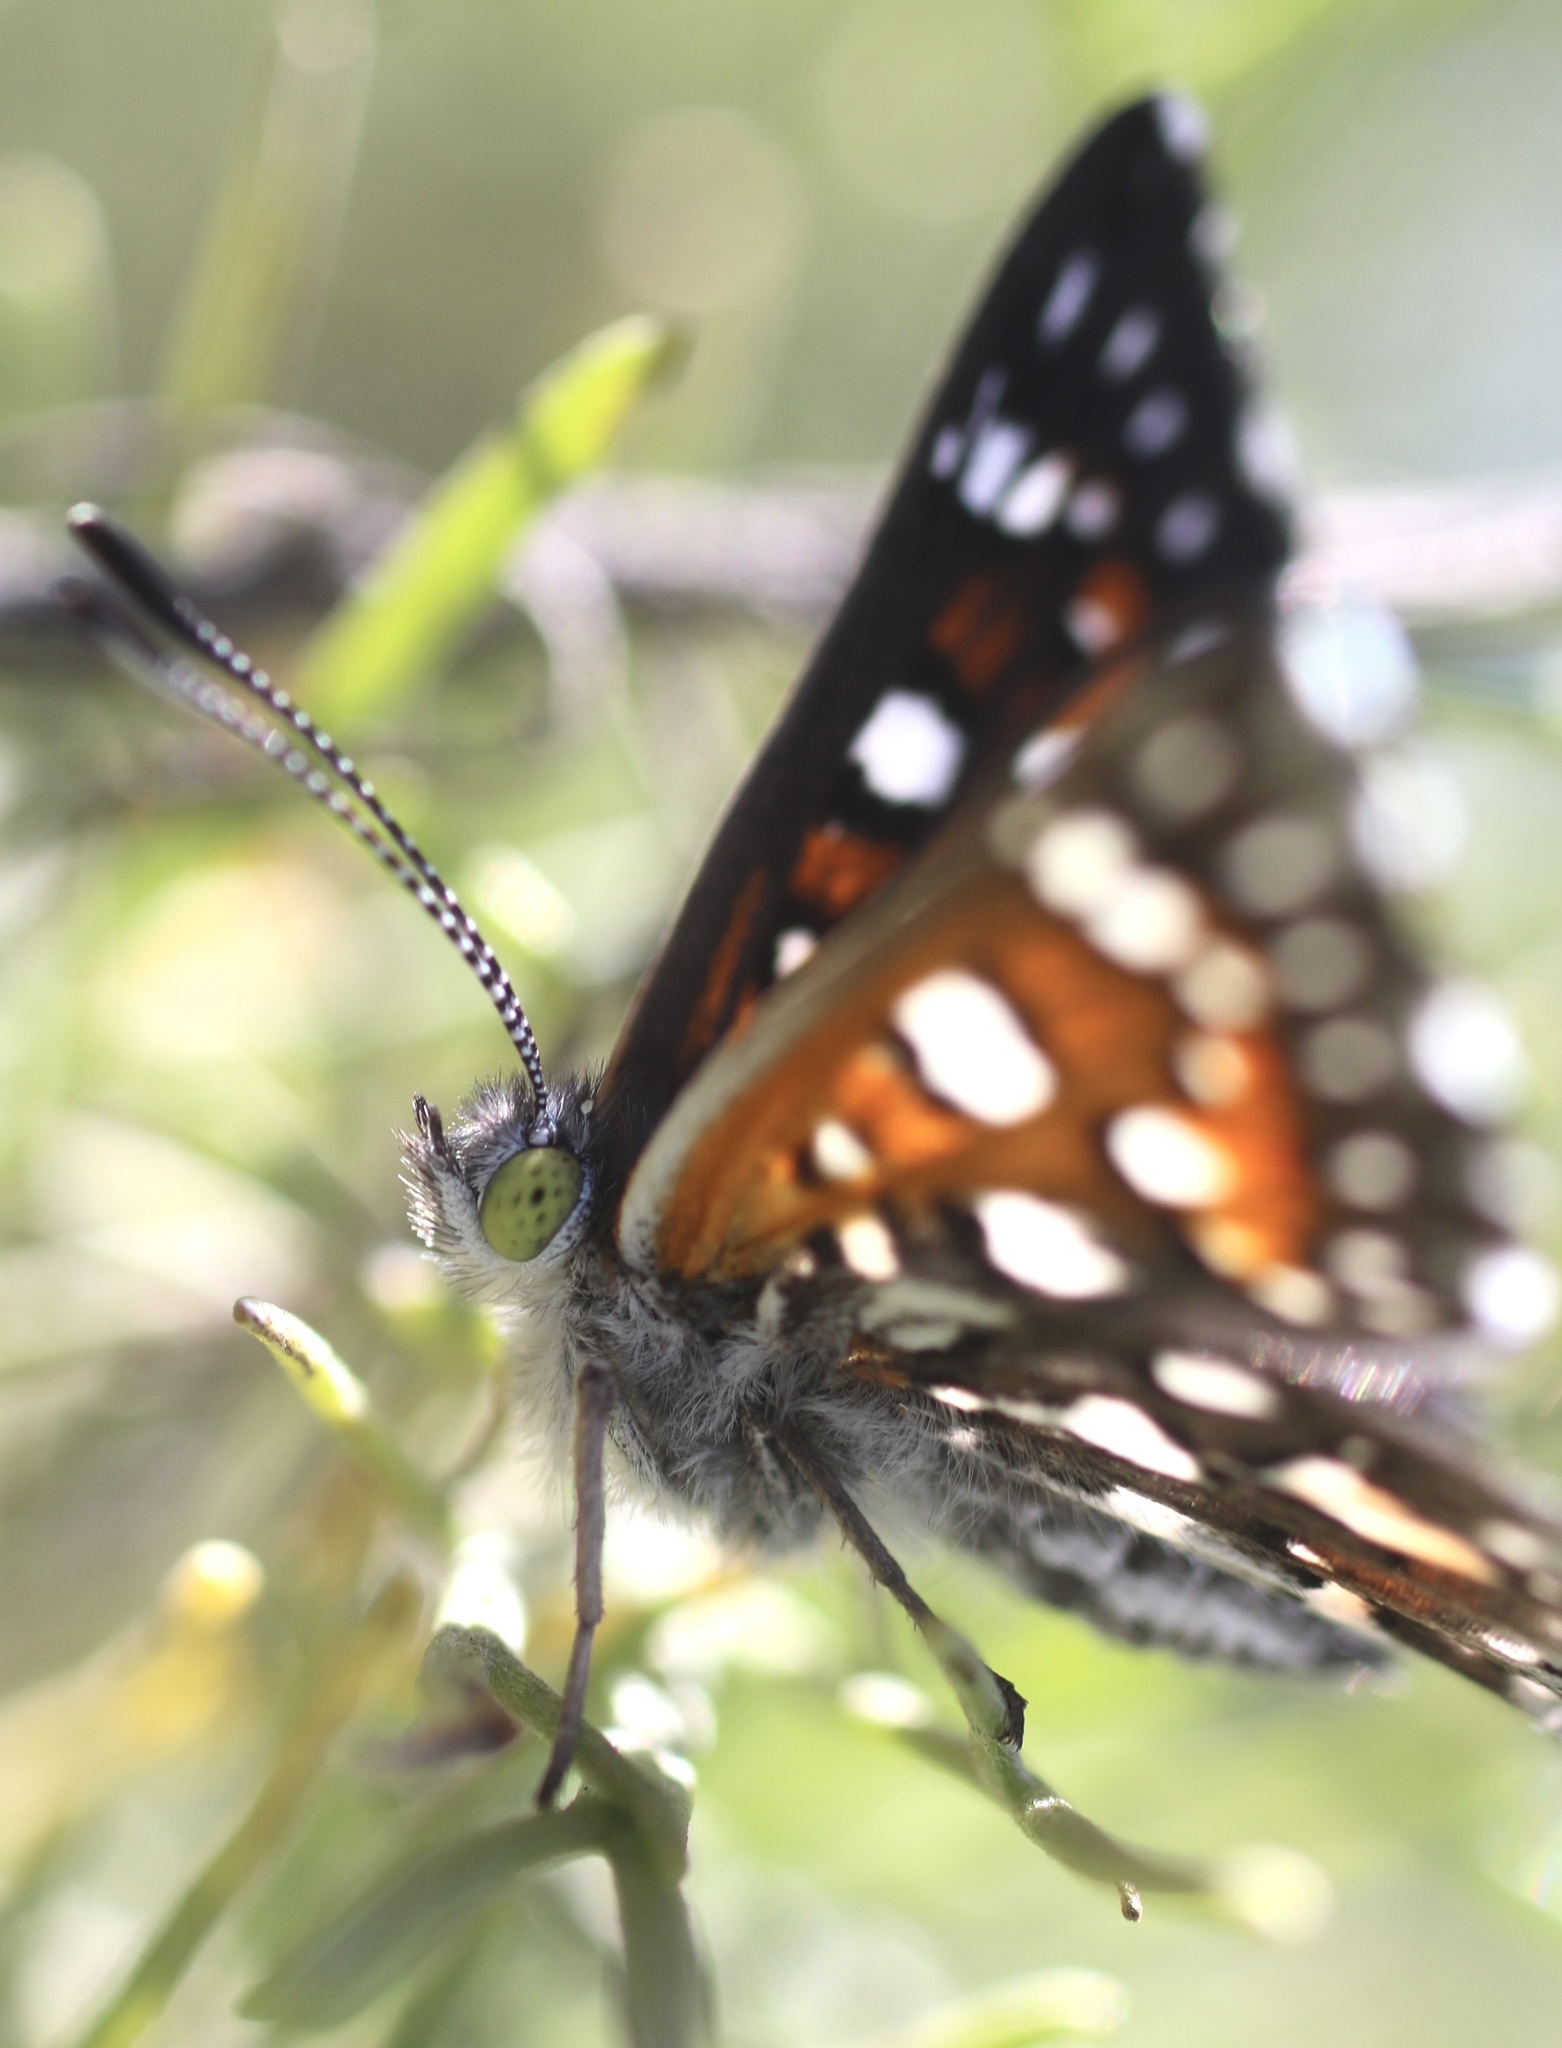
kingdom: Animalia
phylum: Arthropoda
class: Insecta
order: Lepidoptera
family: Riodinidae
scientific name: Riodinidae
